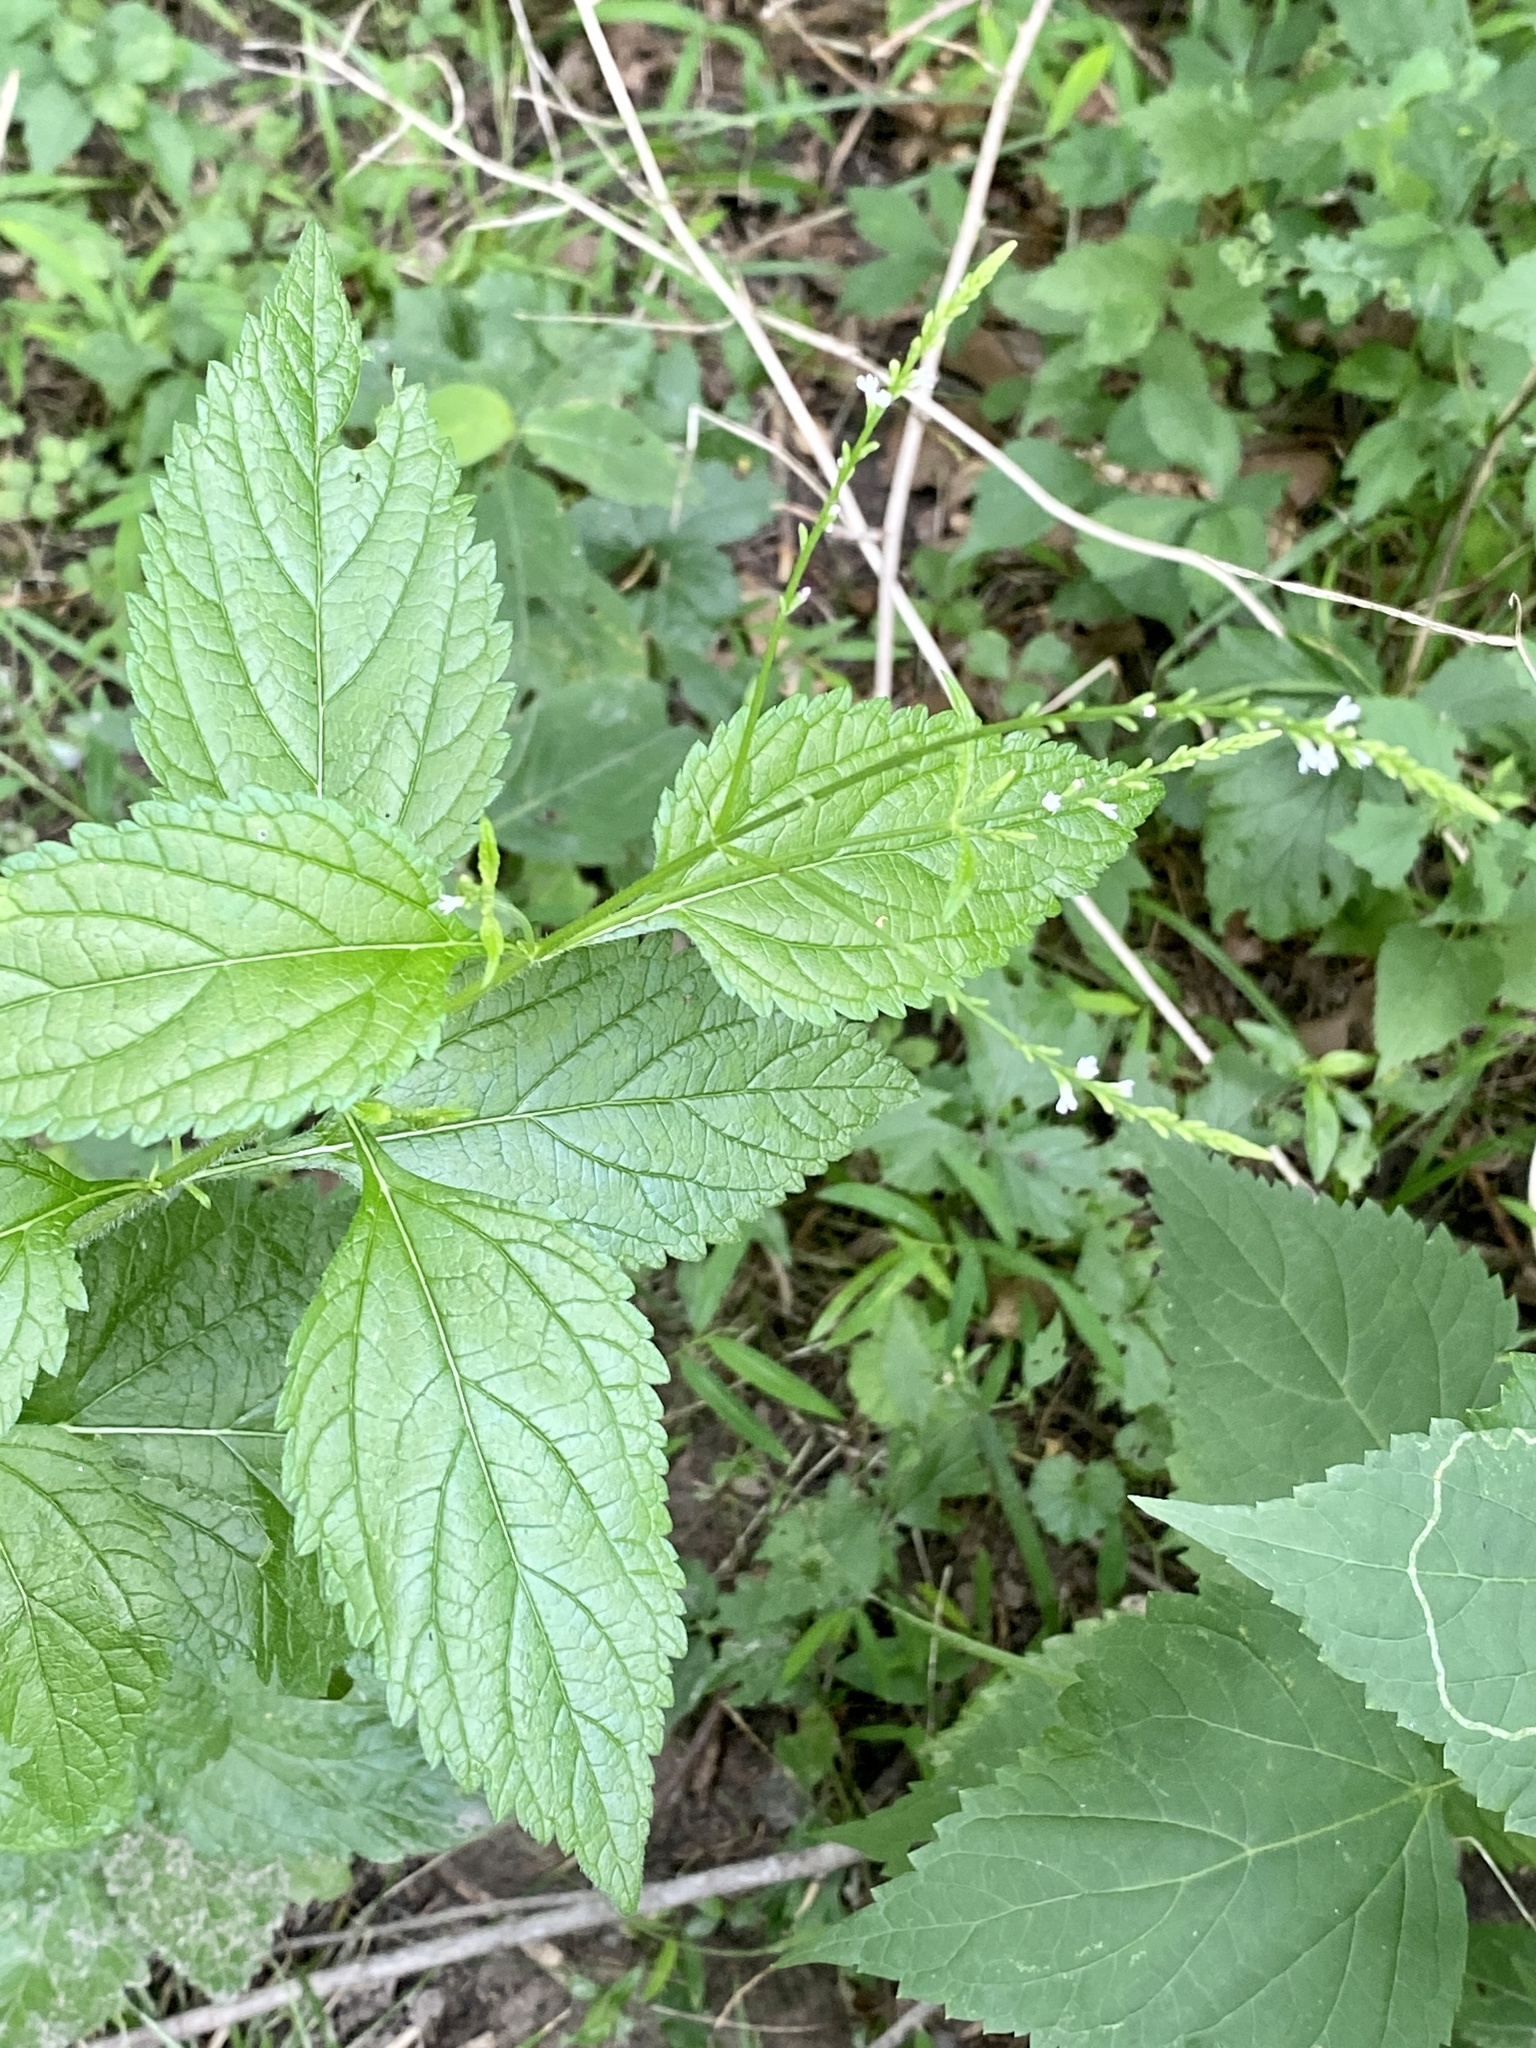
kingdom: Plantae
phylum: Tracheophyta
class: Magnoliopsida
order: Lamiales
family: Verbenaceae
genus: Verbena
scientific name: Verbena urticifolia
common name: Nettle-leaved vervain
